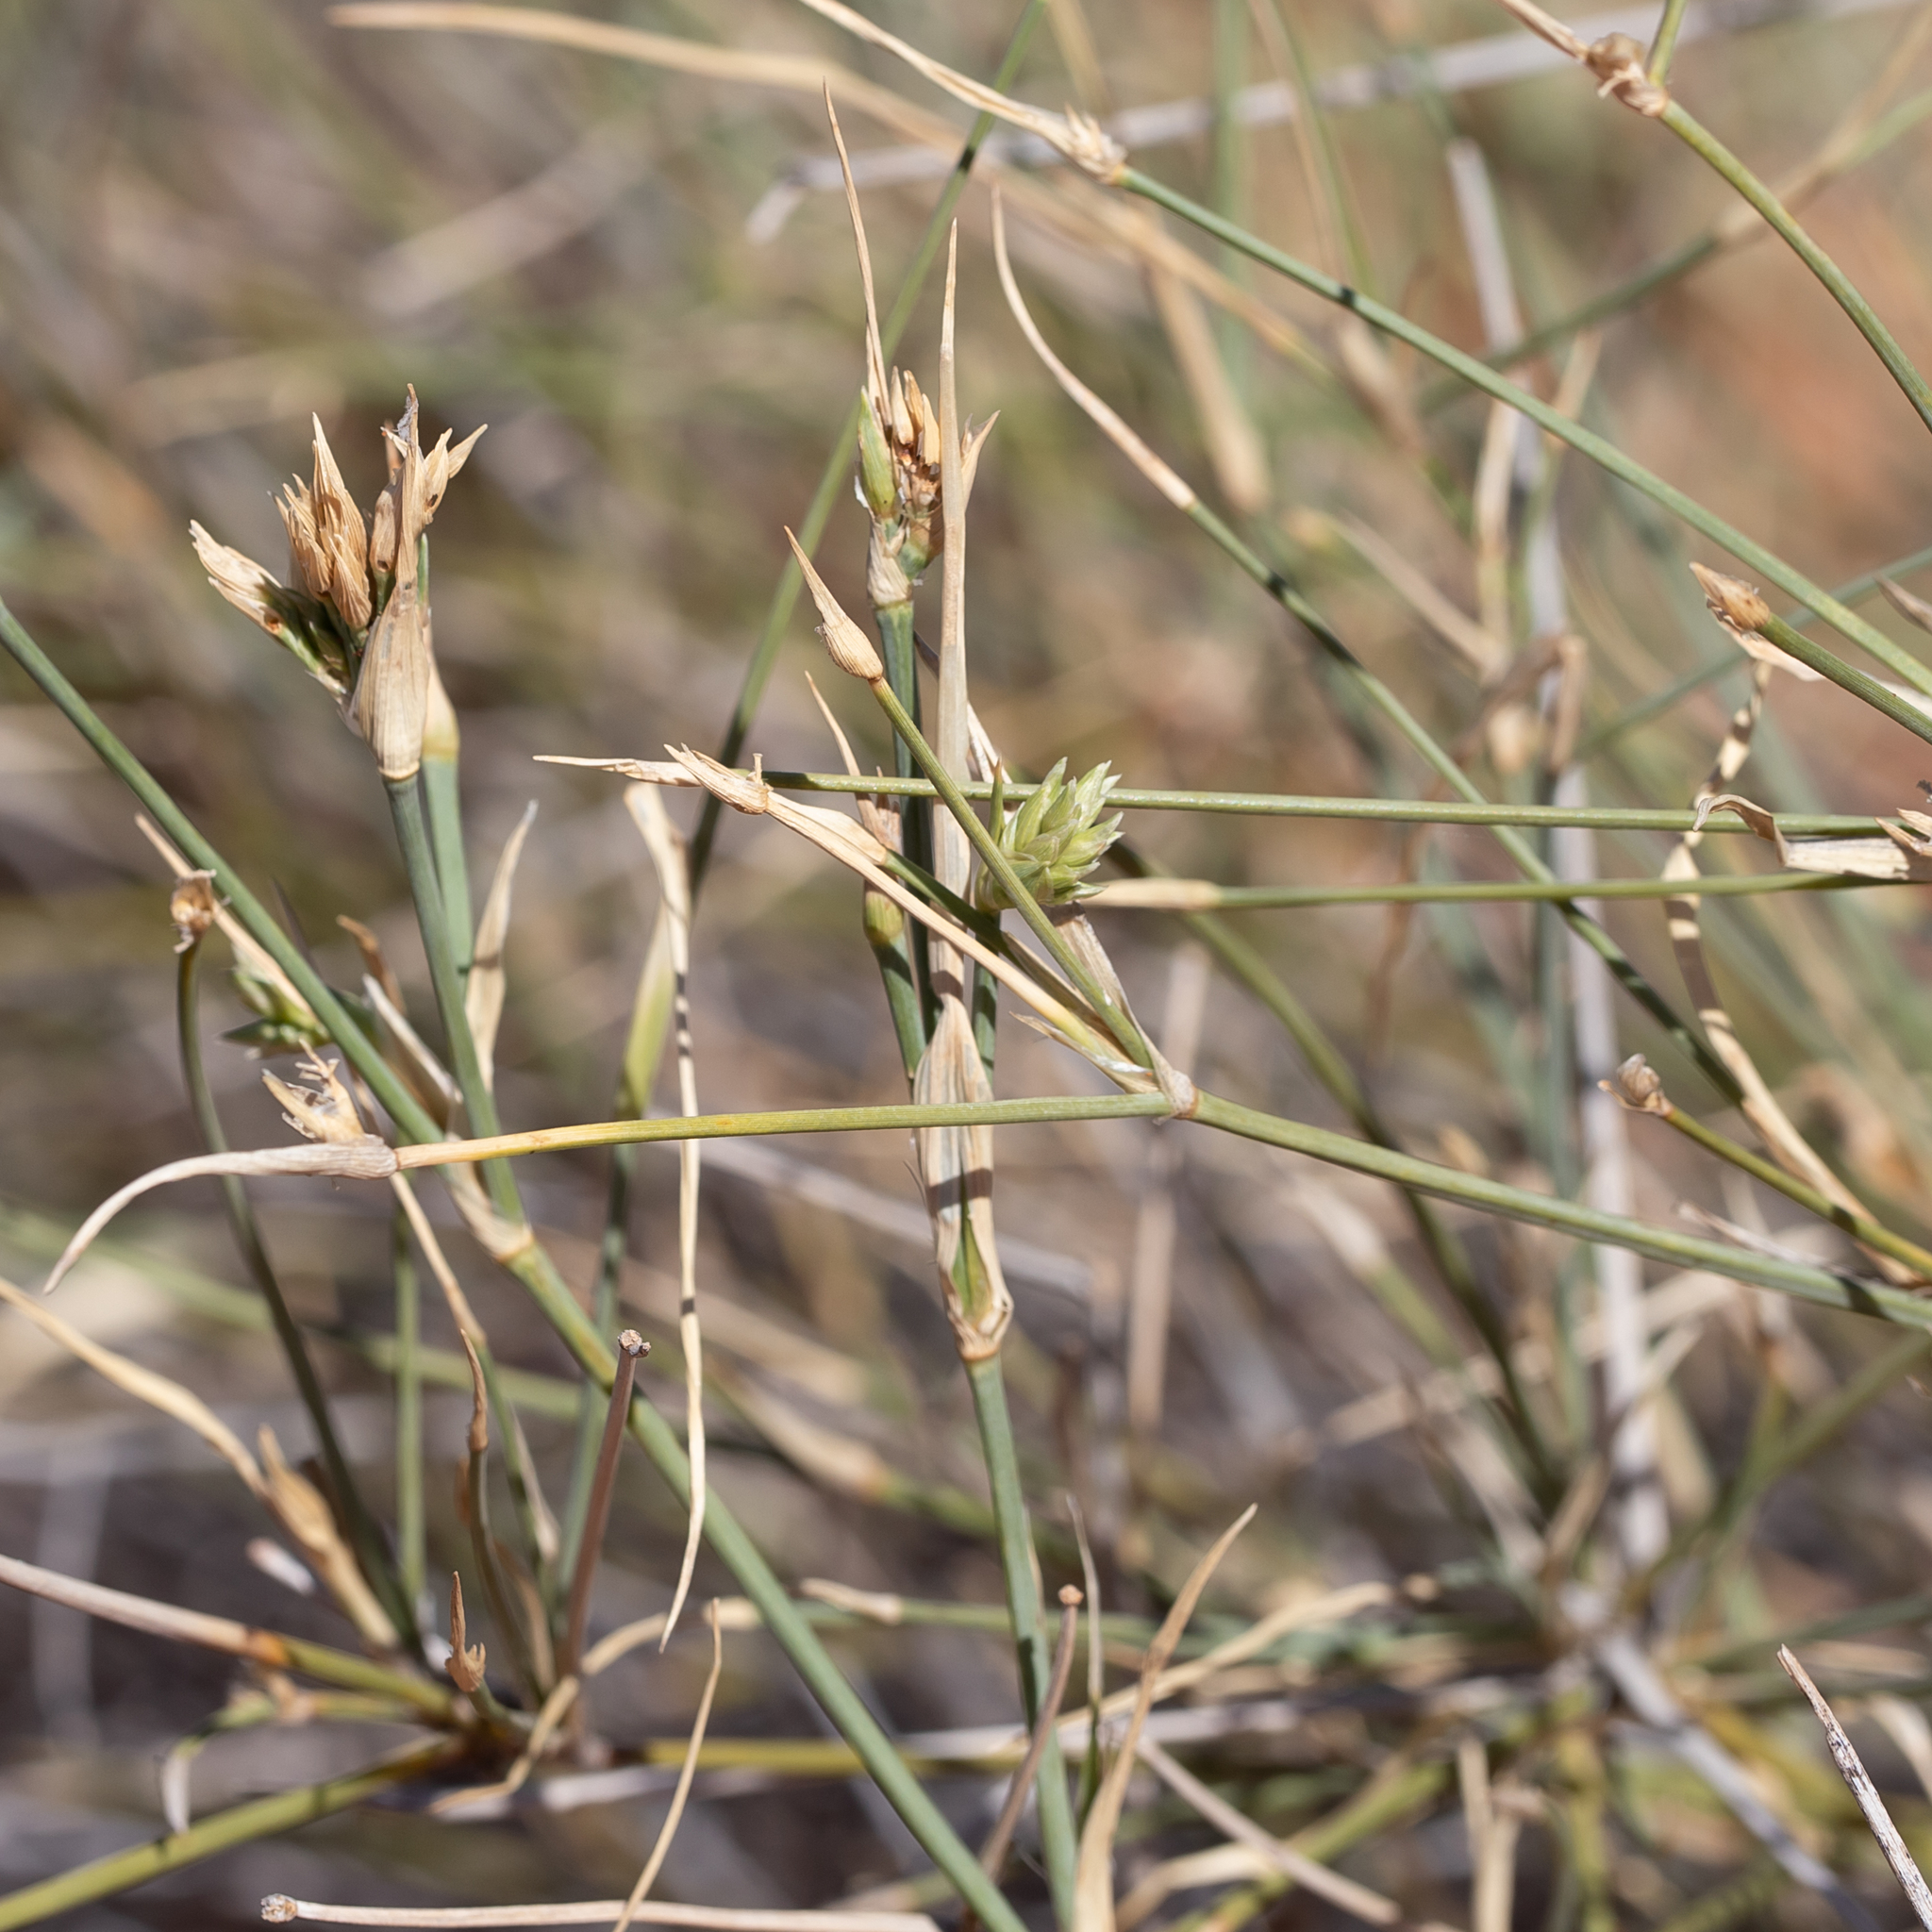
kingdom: Plantae
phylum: Tracheophyta
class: Liliopsida
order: Poales
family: Poaceae
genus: Zygochloa
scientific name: Zygochloa paradoxa
